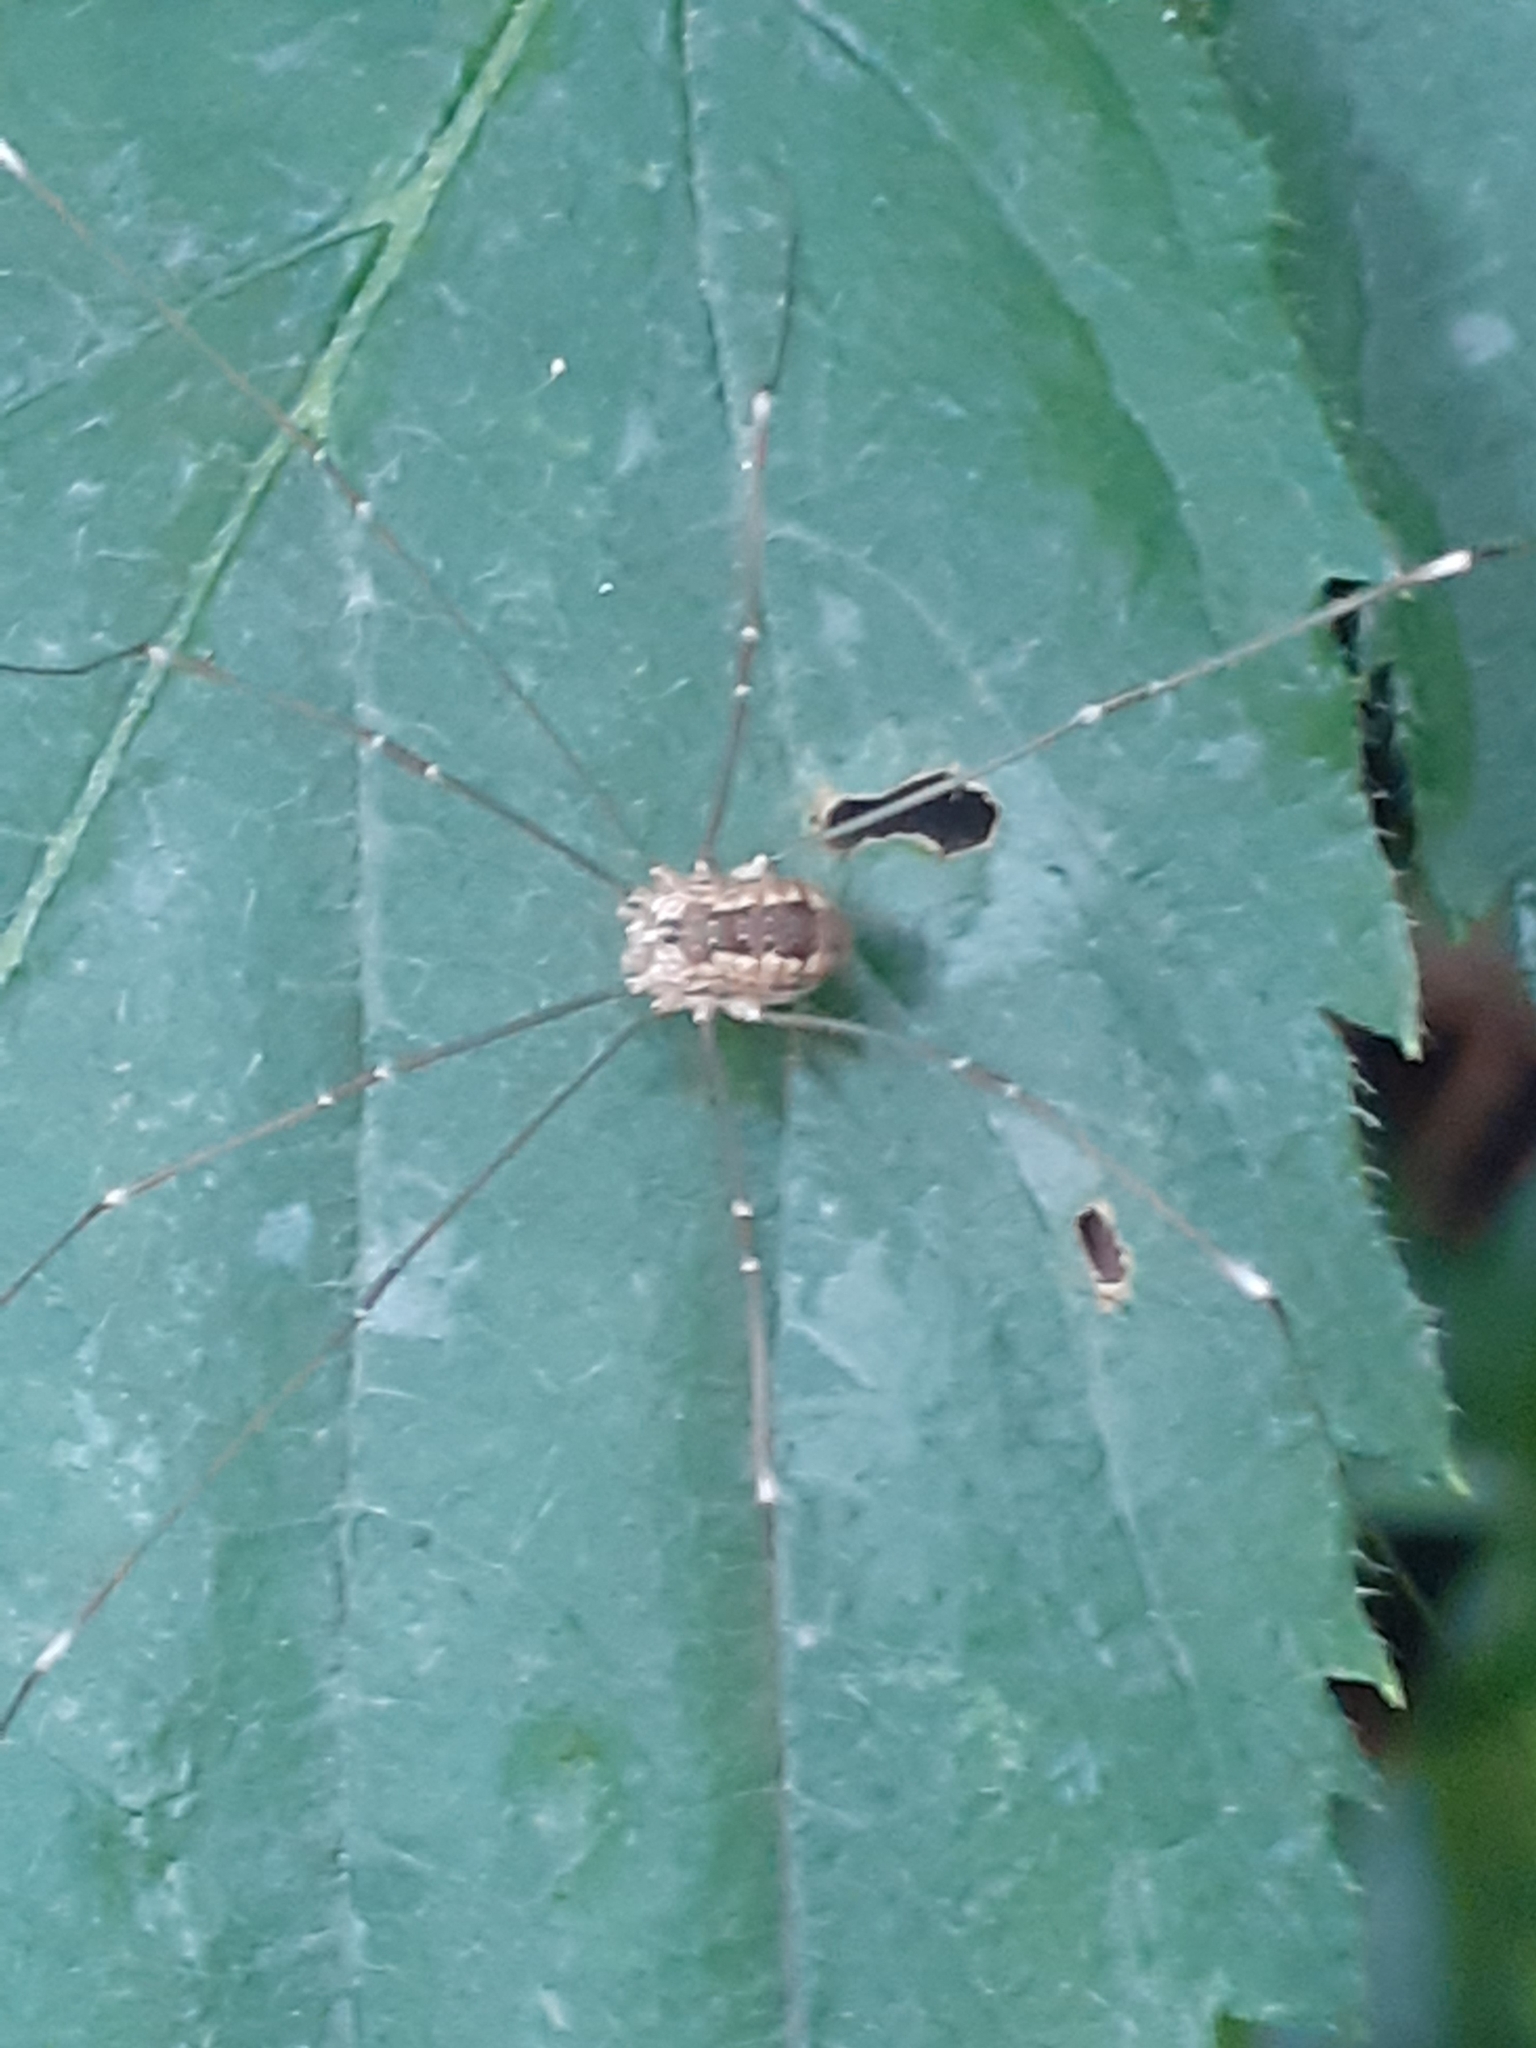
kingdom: Animalia
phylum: Arthropoda
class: Arachnida
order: Opiliones
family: Sclerosomatidae
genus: Leiobunum
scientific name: Leiobunum rotundum
